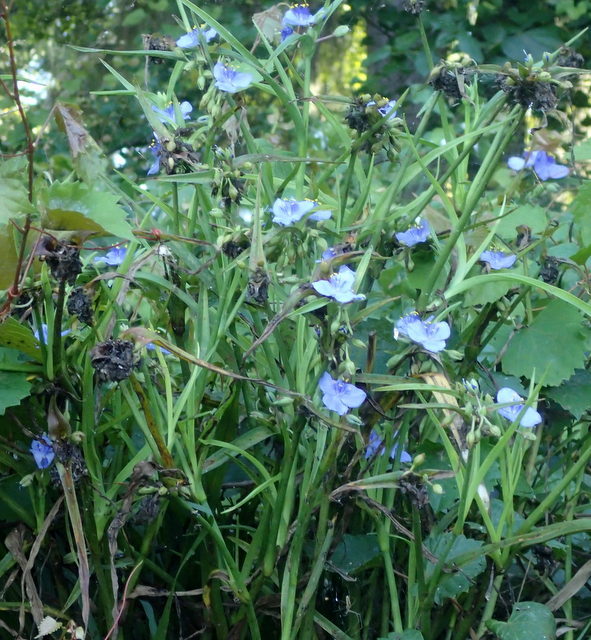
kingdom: Plantae
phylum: Tracheophyta
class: Liliopsida
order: Commelinales
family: Commelinaceae
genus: Tradescantia
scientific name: Tradescantia ohiensis
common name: Ohio spiderwort
